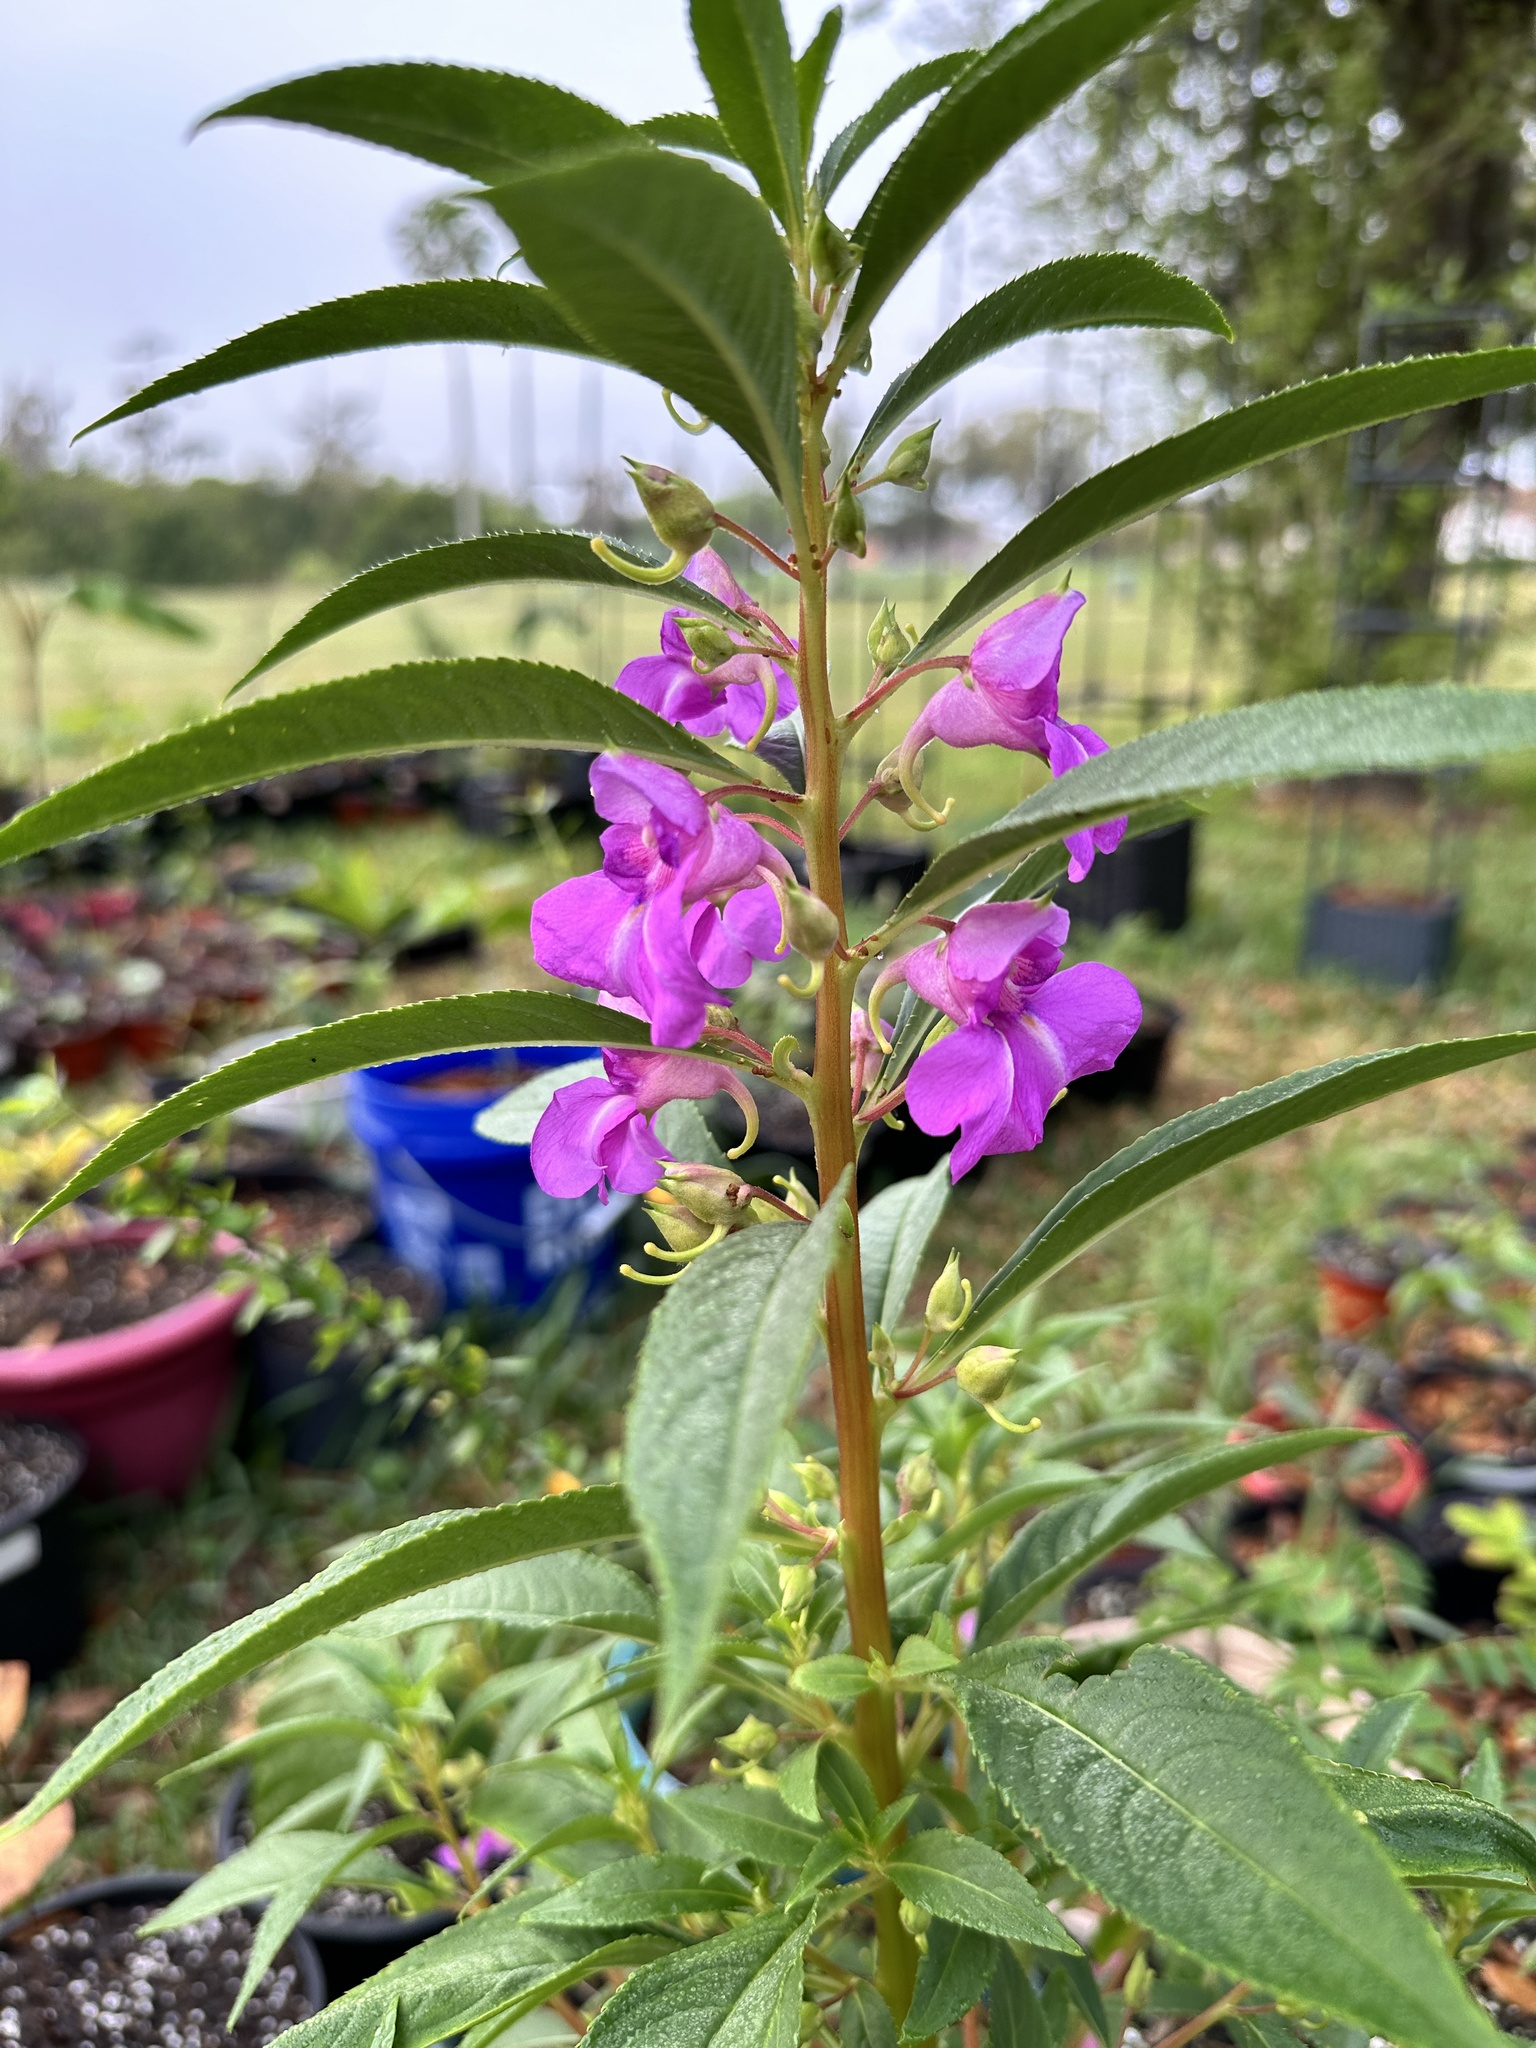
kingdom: Plantae
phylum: Tracheophyta
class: Magnoliopsida
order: Ericales
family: Balsaminaceae
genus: Impatiens
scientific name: Impatiens balsamina
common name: Balsam
